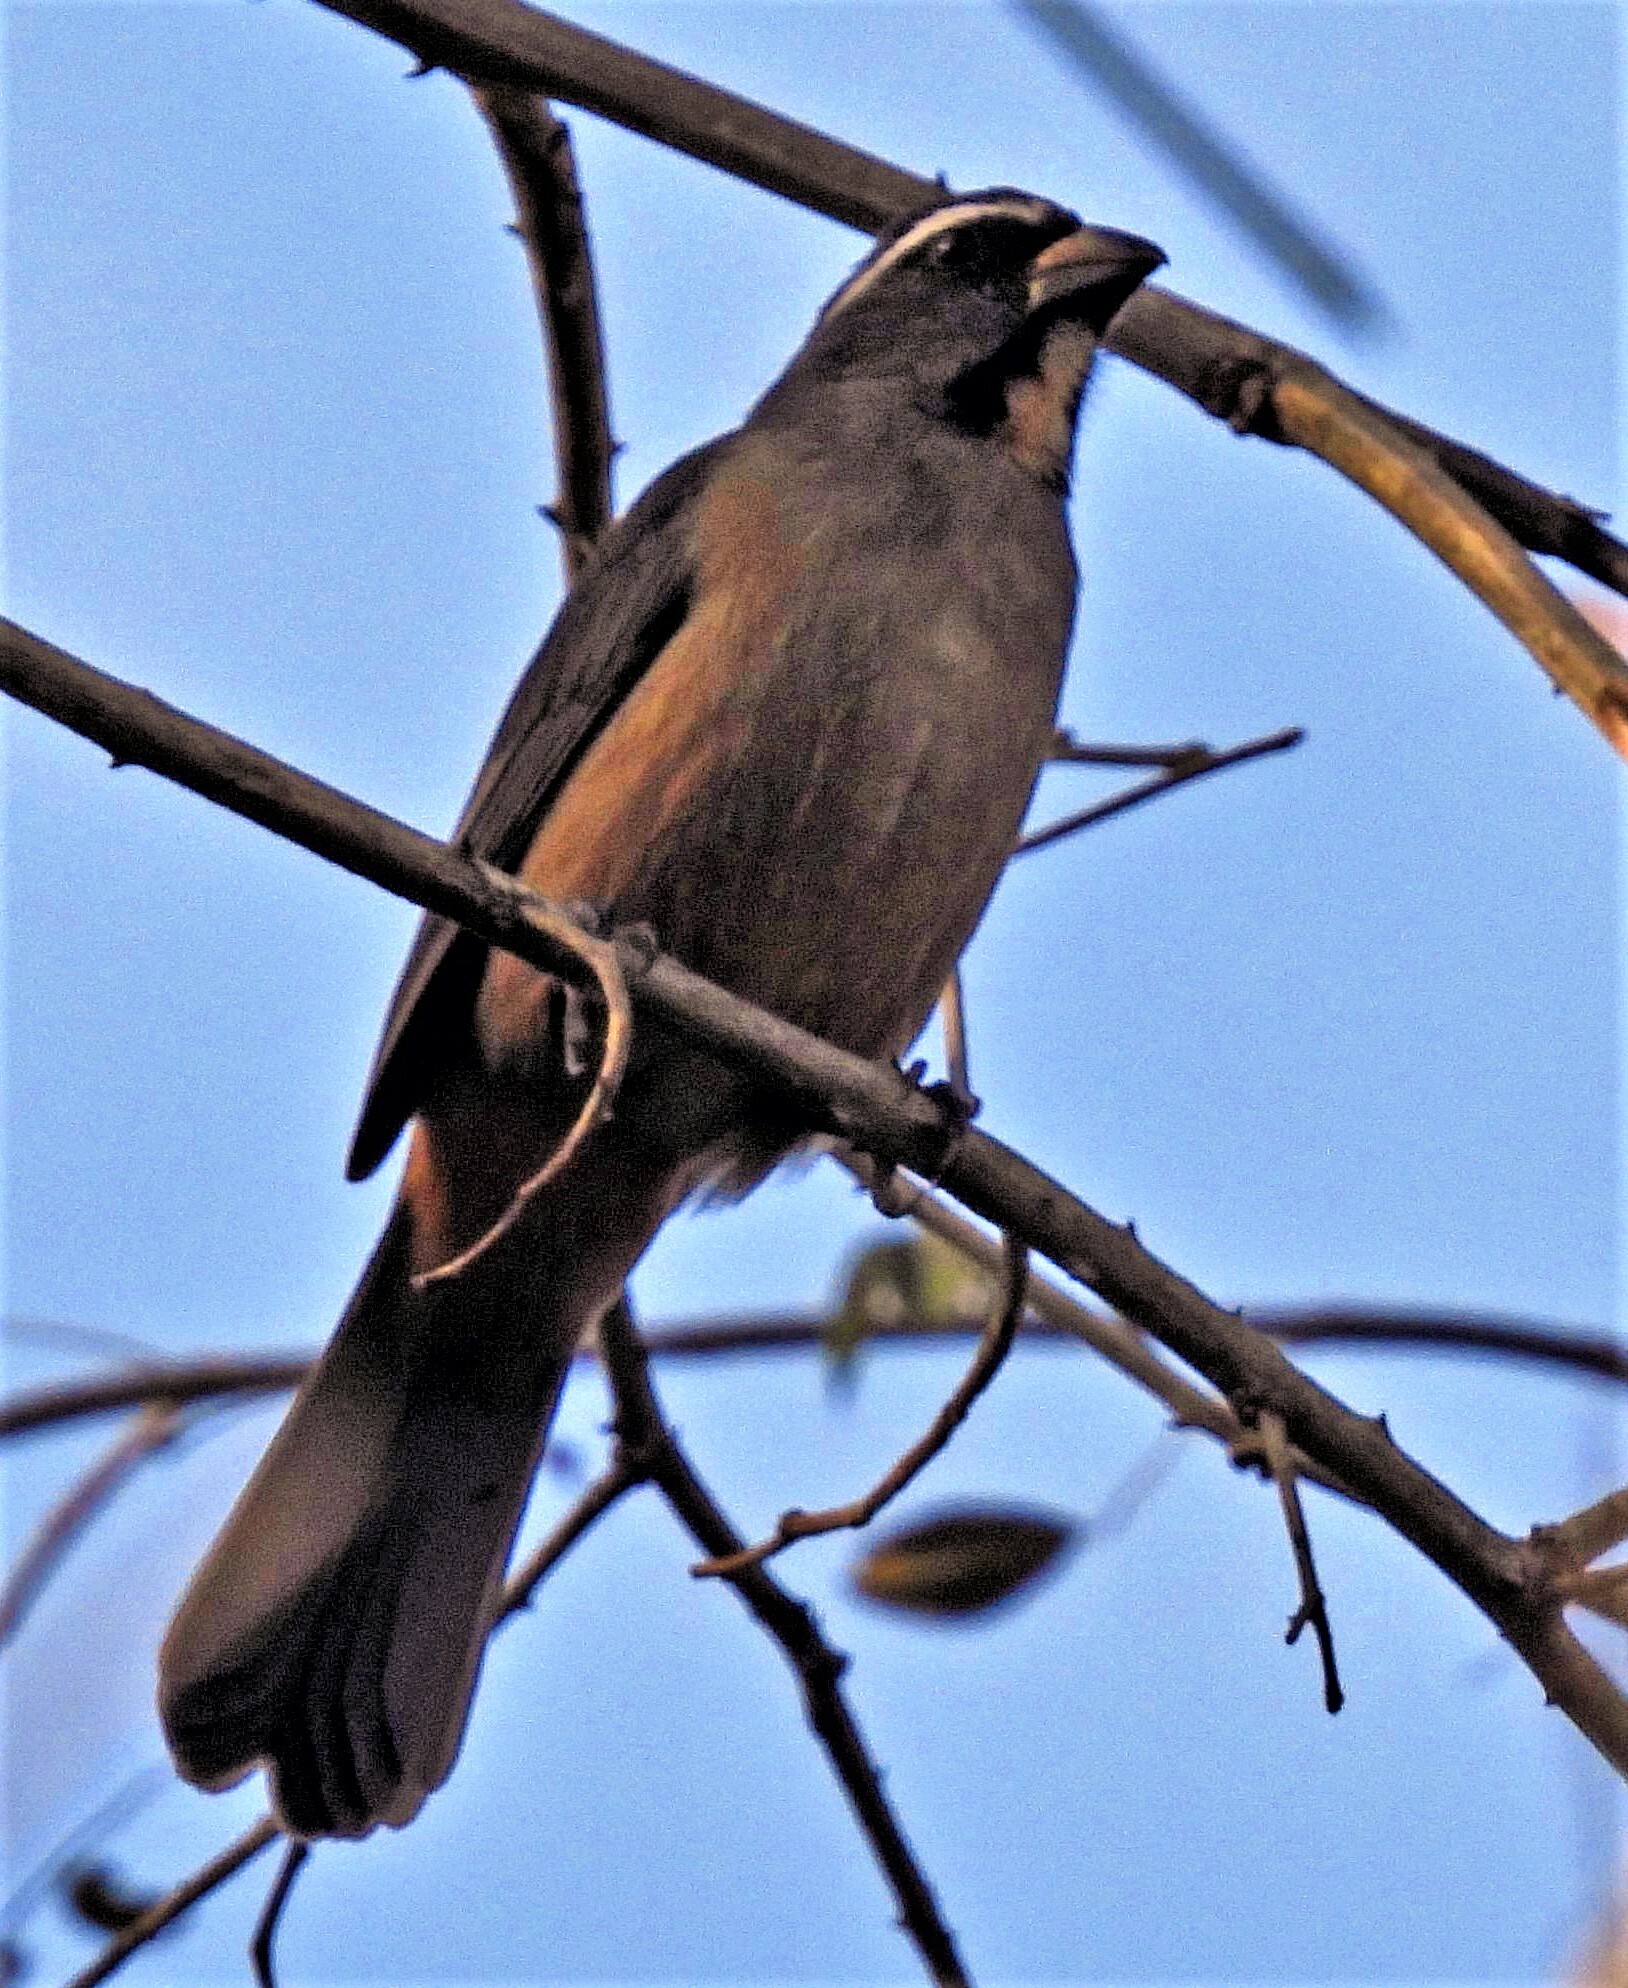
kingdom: Animalia
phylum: Chordata
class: Aves
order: Passeriformes
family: Thraupidae
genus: Saltator
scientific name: Saltator maxillosus
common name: Thick-billed saltator
